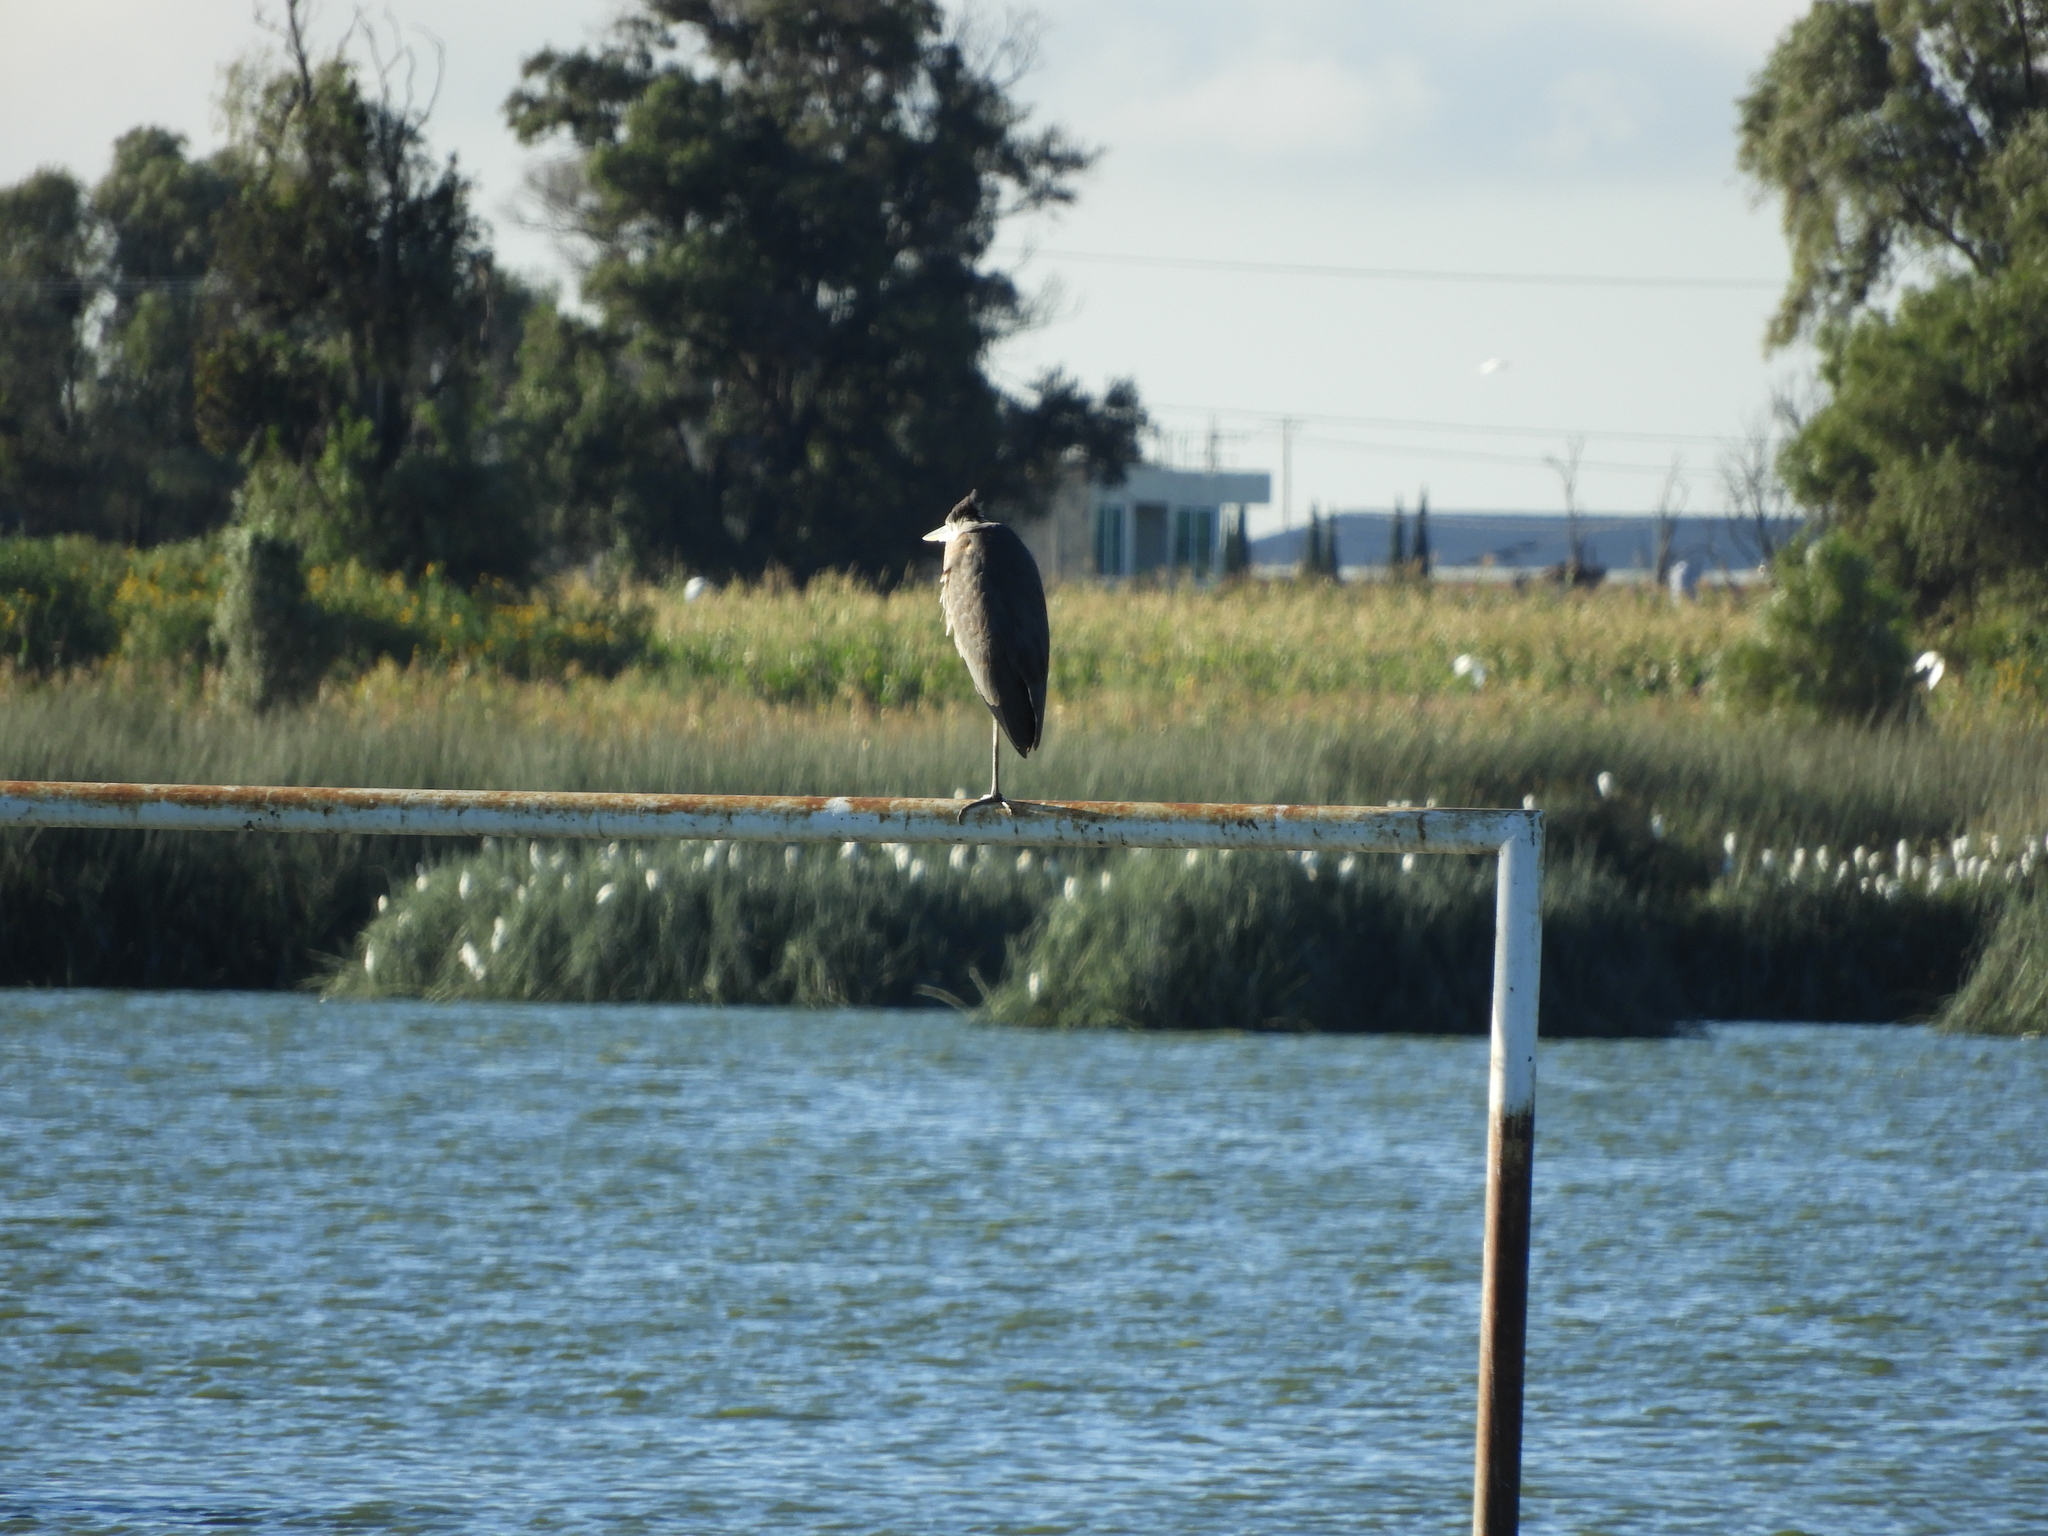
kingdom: Animalia
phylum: Chordata
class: Aves
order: Pelecaniformes
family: Ardeidae
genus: Ardea
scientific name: Ardea herodias
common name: Great blue heron
